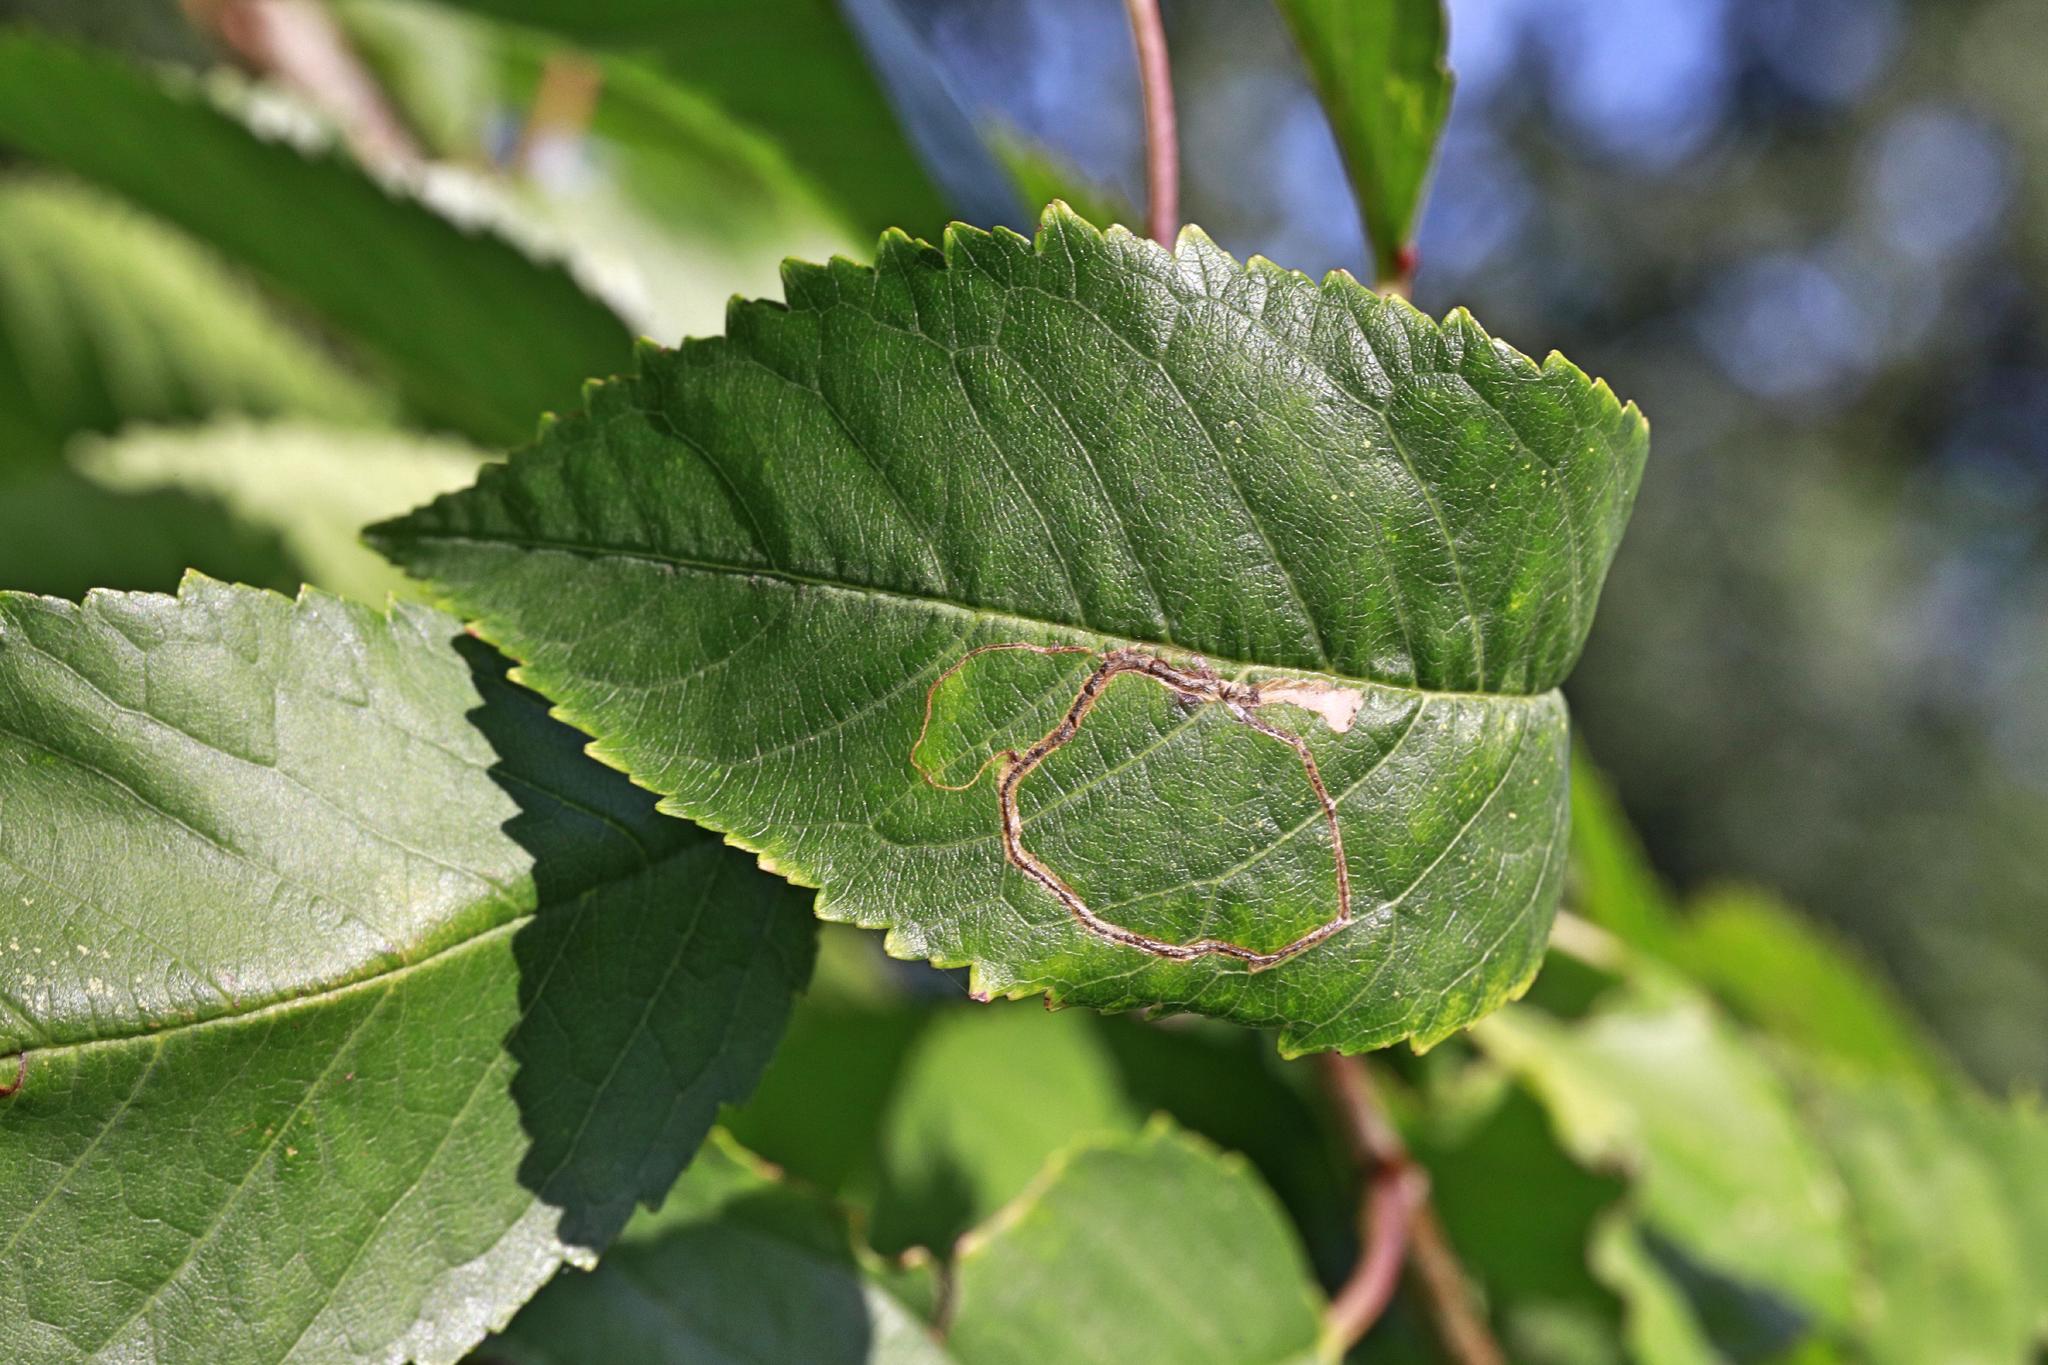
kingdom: Animalia
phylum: Arthropoda
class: Insecta
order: Lepidoptera
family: Lyonetiidae
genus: Lyonetia
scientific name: Lyonetia clerkella
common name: Apple leaf miner
